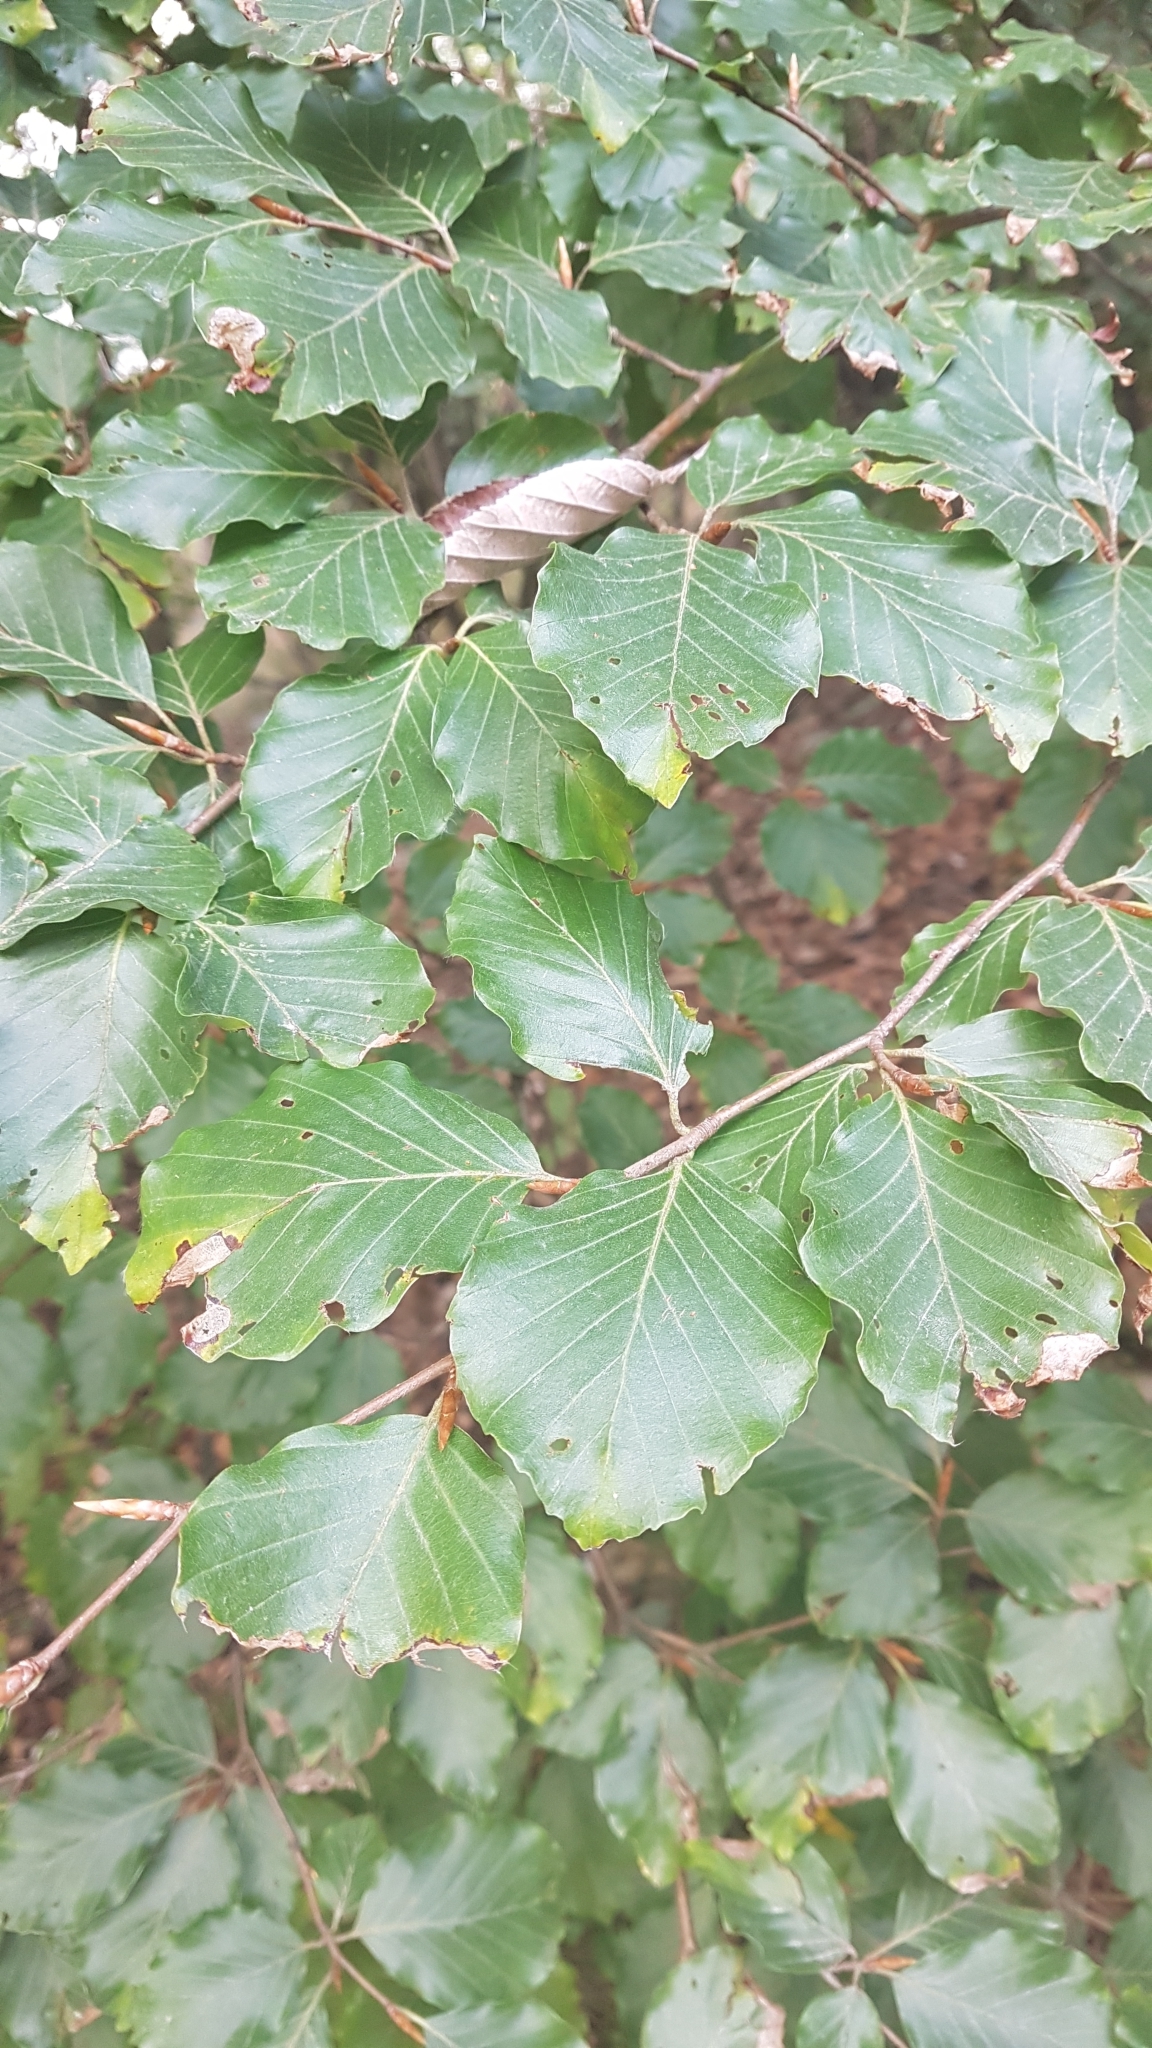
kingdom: Plantae
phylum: Tracheophyta
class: Magnoliopsida
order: Fagales
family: Fagaceae
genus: Fagus
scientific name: Fagus sylvatica
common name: Beech
